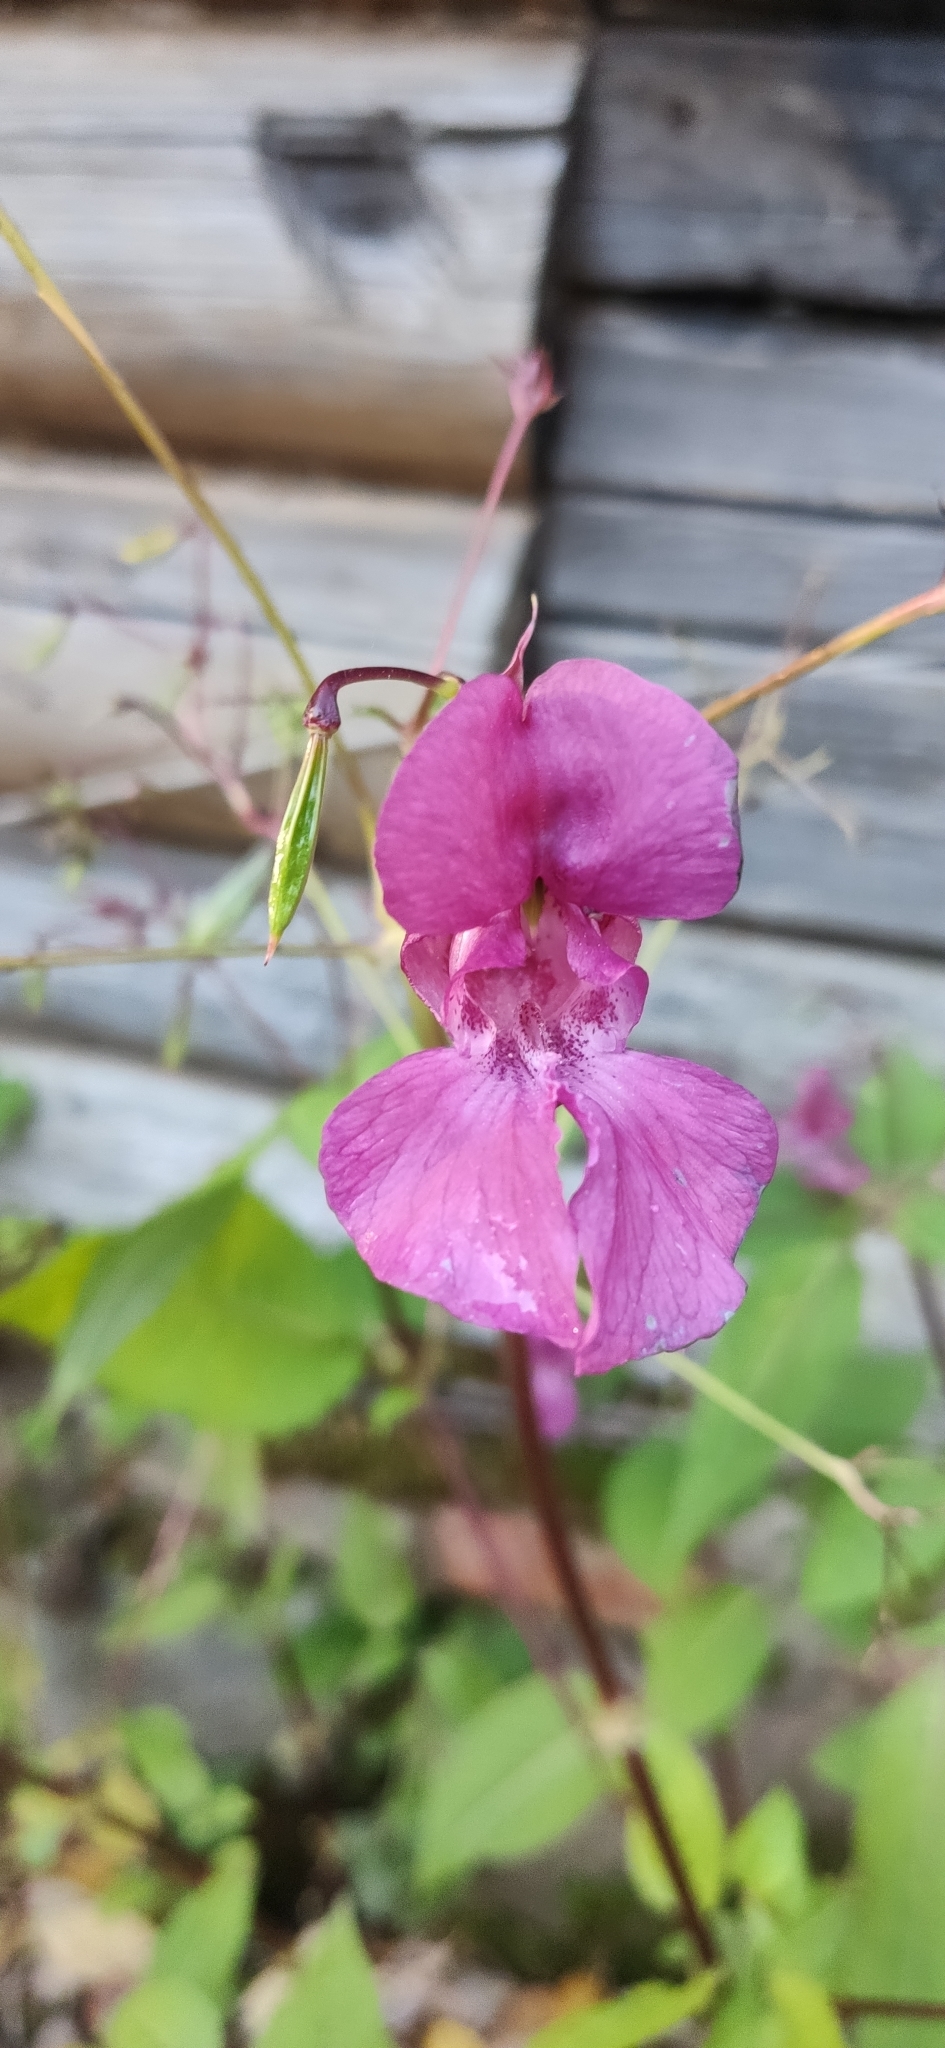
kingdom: Plantae
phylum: Tracheophyta
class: Magnoliopsida
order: Ericales
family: Balsaminaceae
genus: Impatiens
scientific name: Impatiens glandulifera
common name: Himalayan balsam
